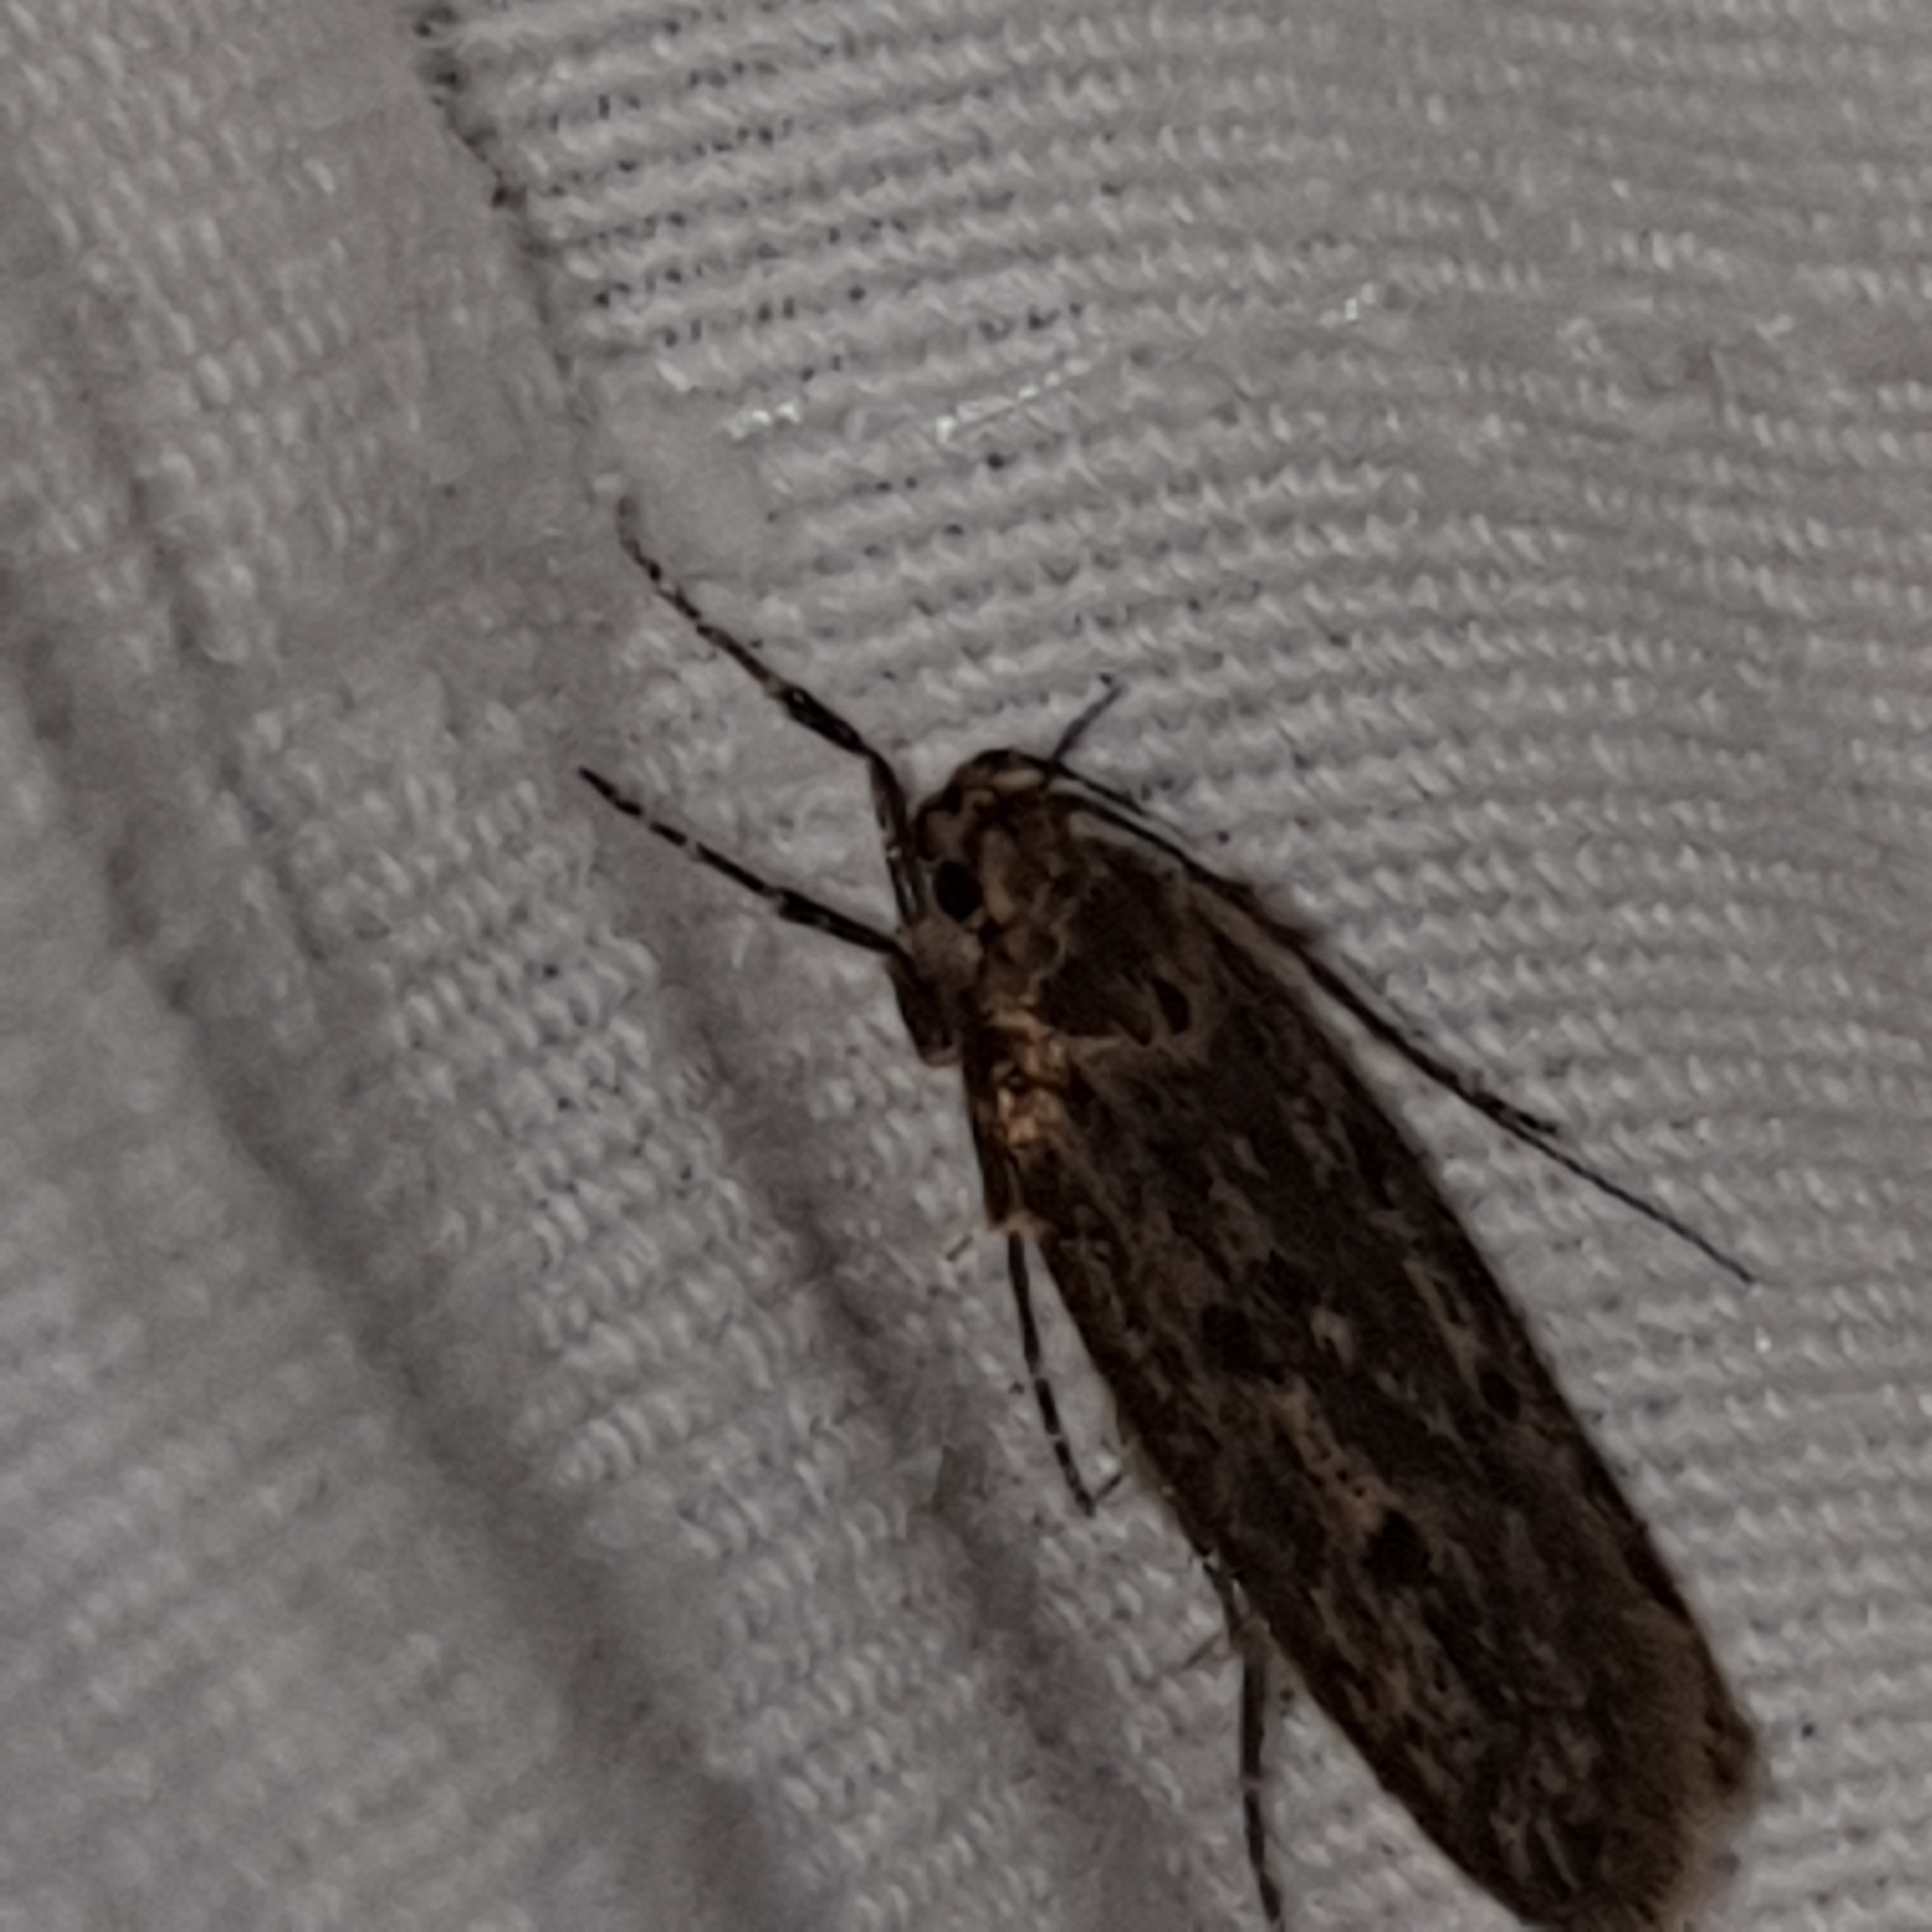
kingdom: Animalia
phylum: Arthropoda
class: Insecta
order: Lepidoptera
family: Oecophoridae
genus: Hofmannophila
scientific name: Hofmannophila pseudospretella
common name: Brown house moth
